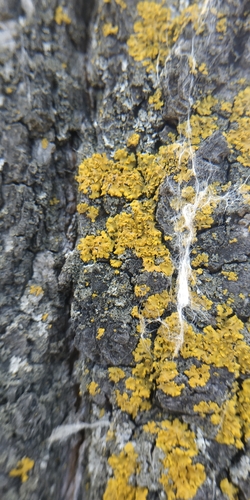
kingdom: Fungi
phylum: Ascomycota
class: Lecanoromycetes
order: Teloschistales
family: Teloschistaceae
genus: Xanthoria
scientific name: Xanthoria parietina
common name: Common orange lichen
